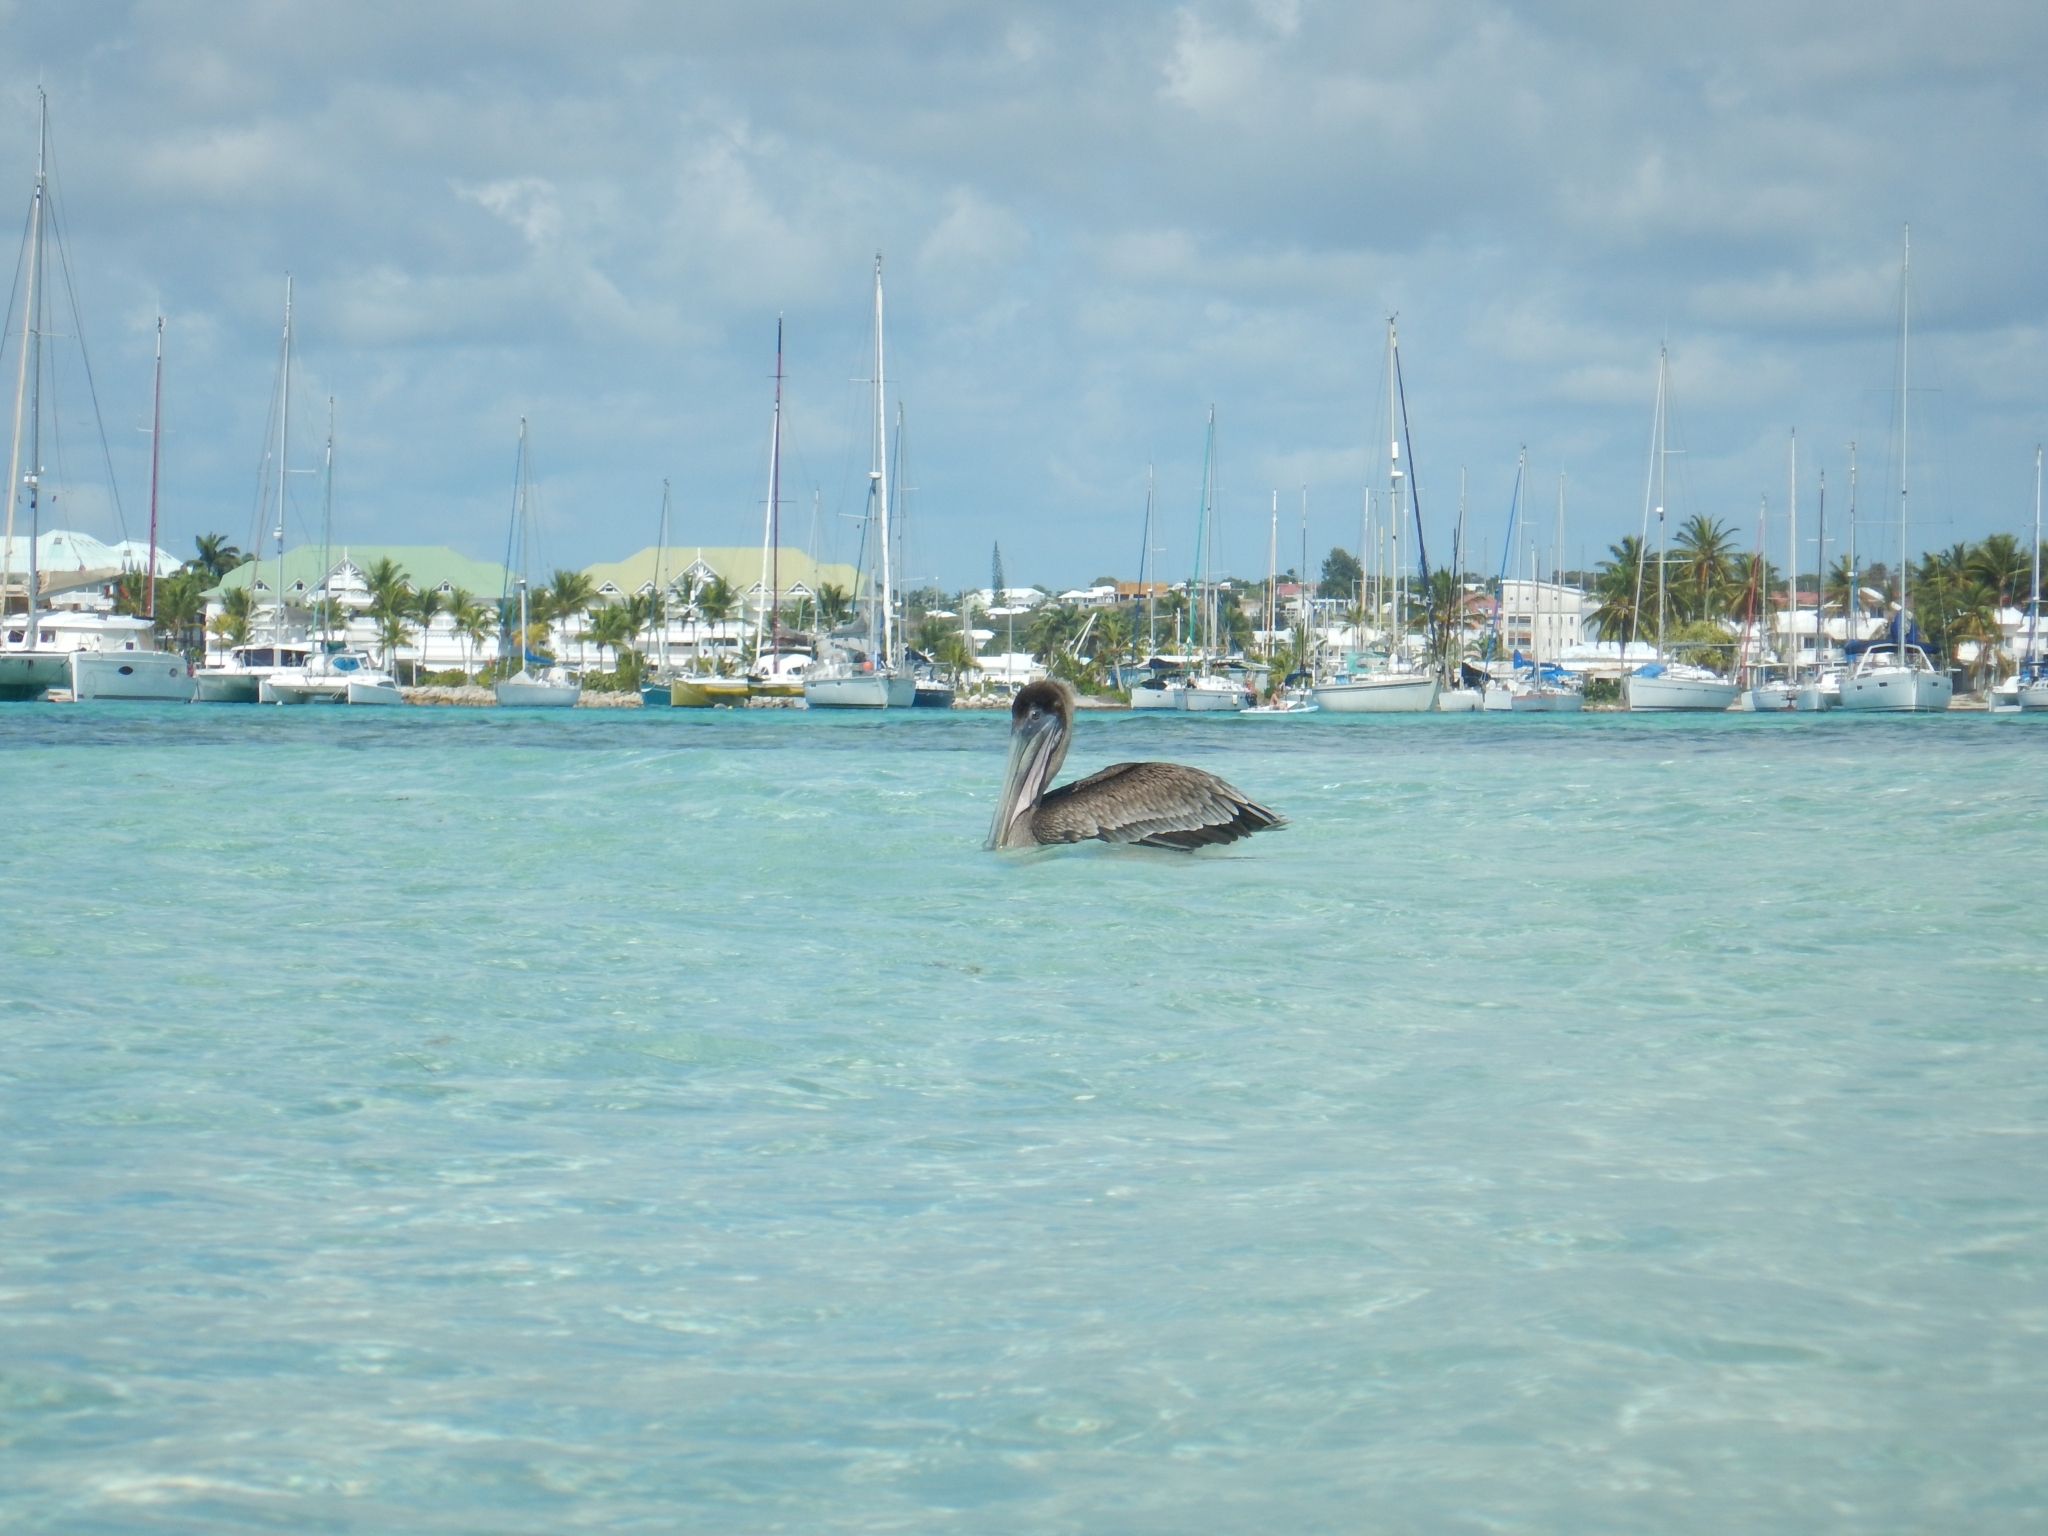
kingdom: Animalia
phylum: Chordata
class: Aves
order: Pelecaniformes
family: Pelecanidae
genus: Pelecanus
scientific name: Pelecanus occidentalis
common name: Brown pelican
